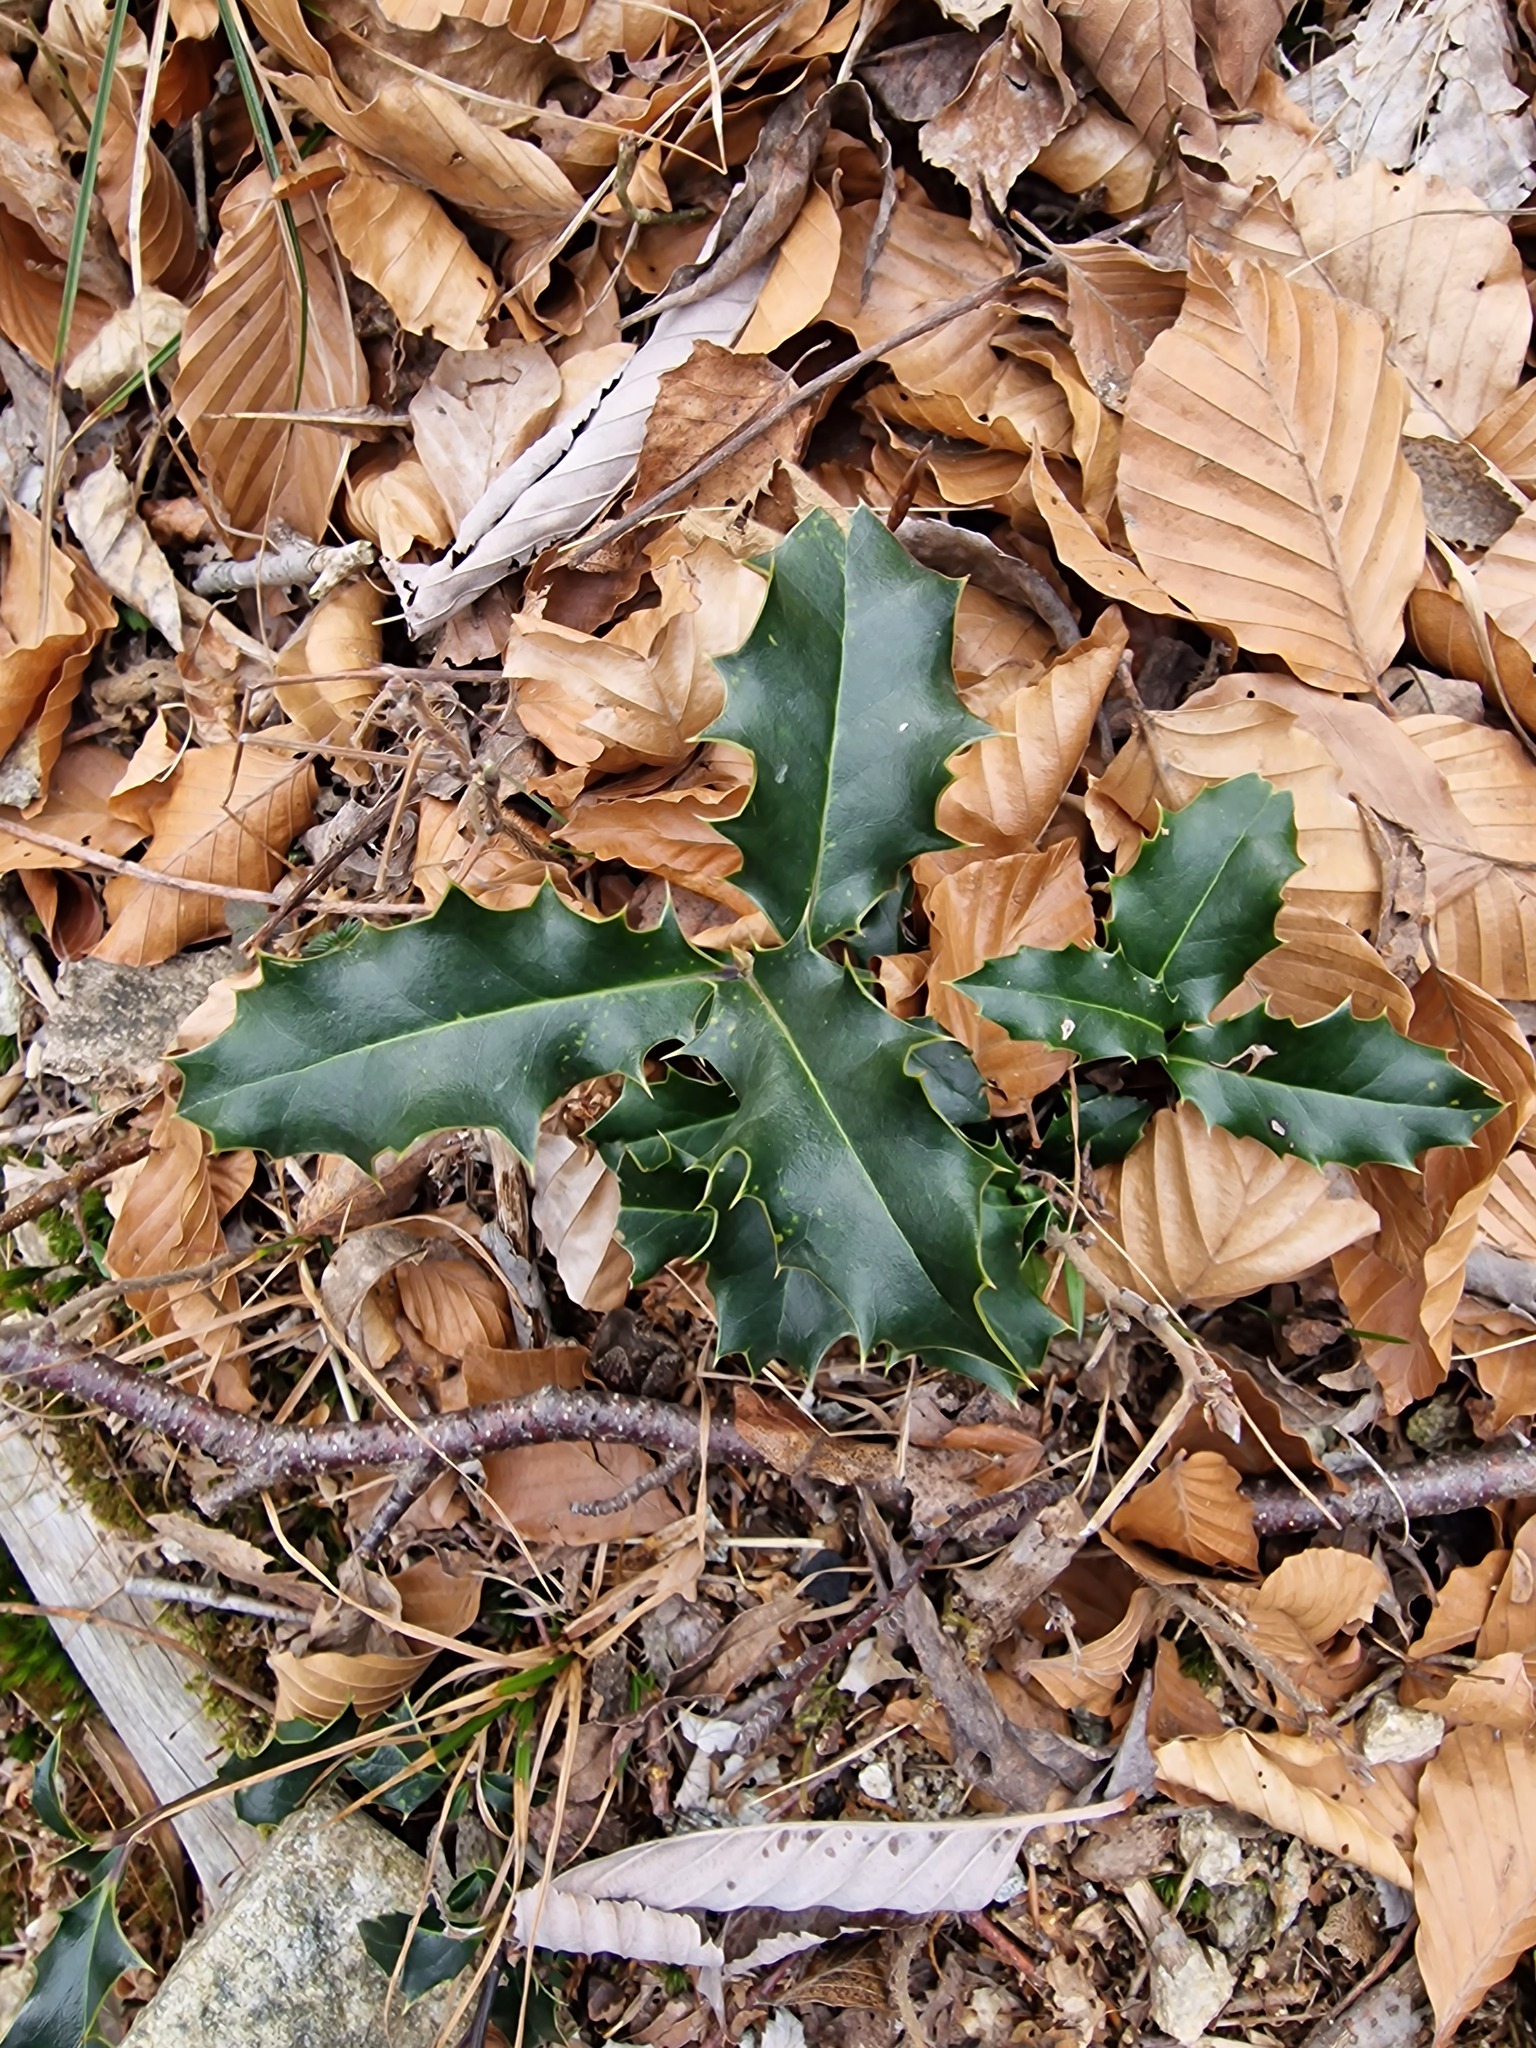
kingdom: Plantae
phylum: Tracheophyta
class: Magnoliopsida
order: Aquifoliales
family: Aquifoliaceae
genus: Ilex
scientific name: Ilex aquifolium
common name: English holly
